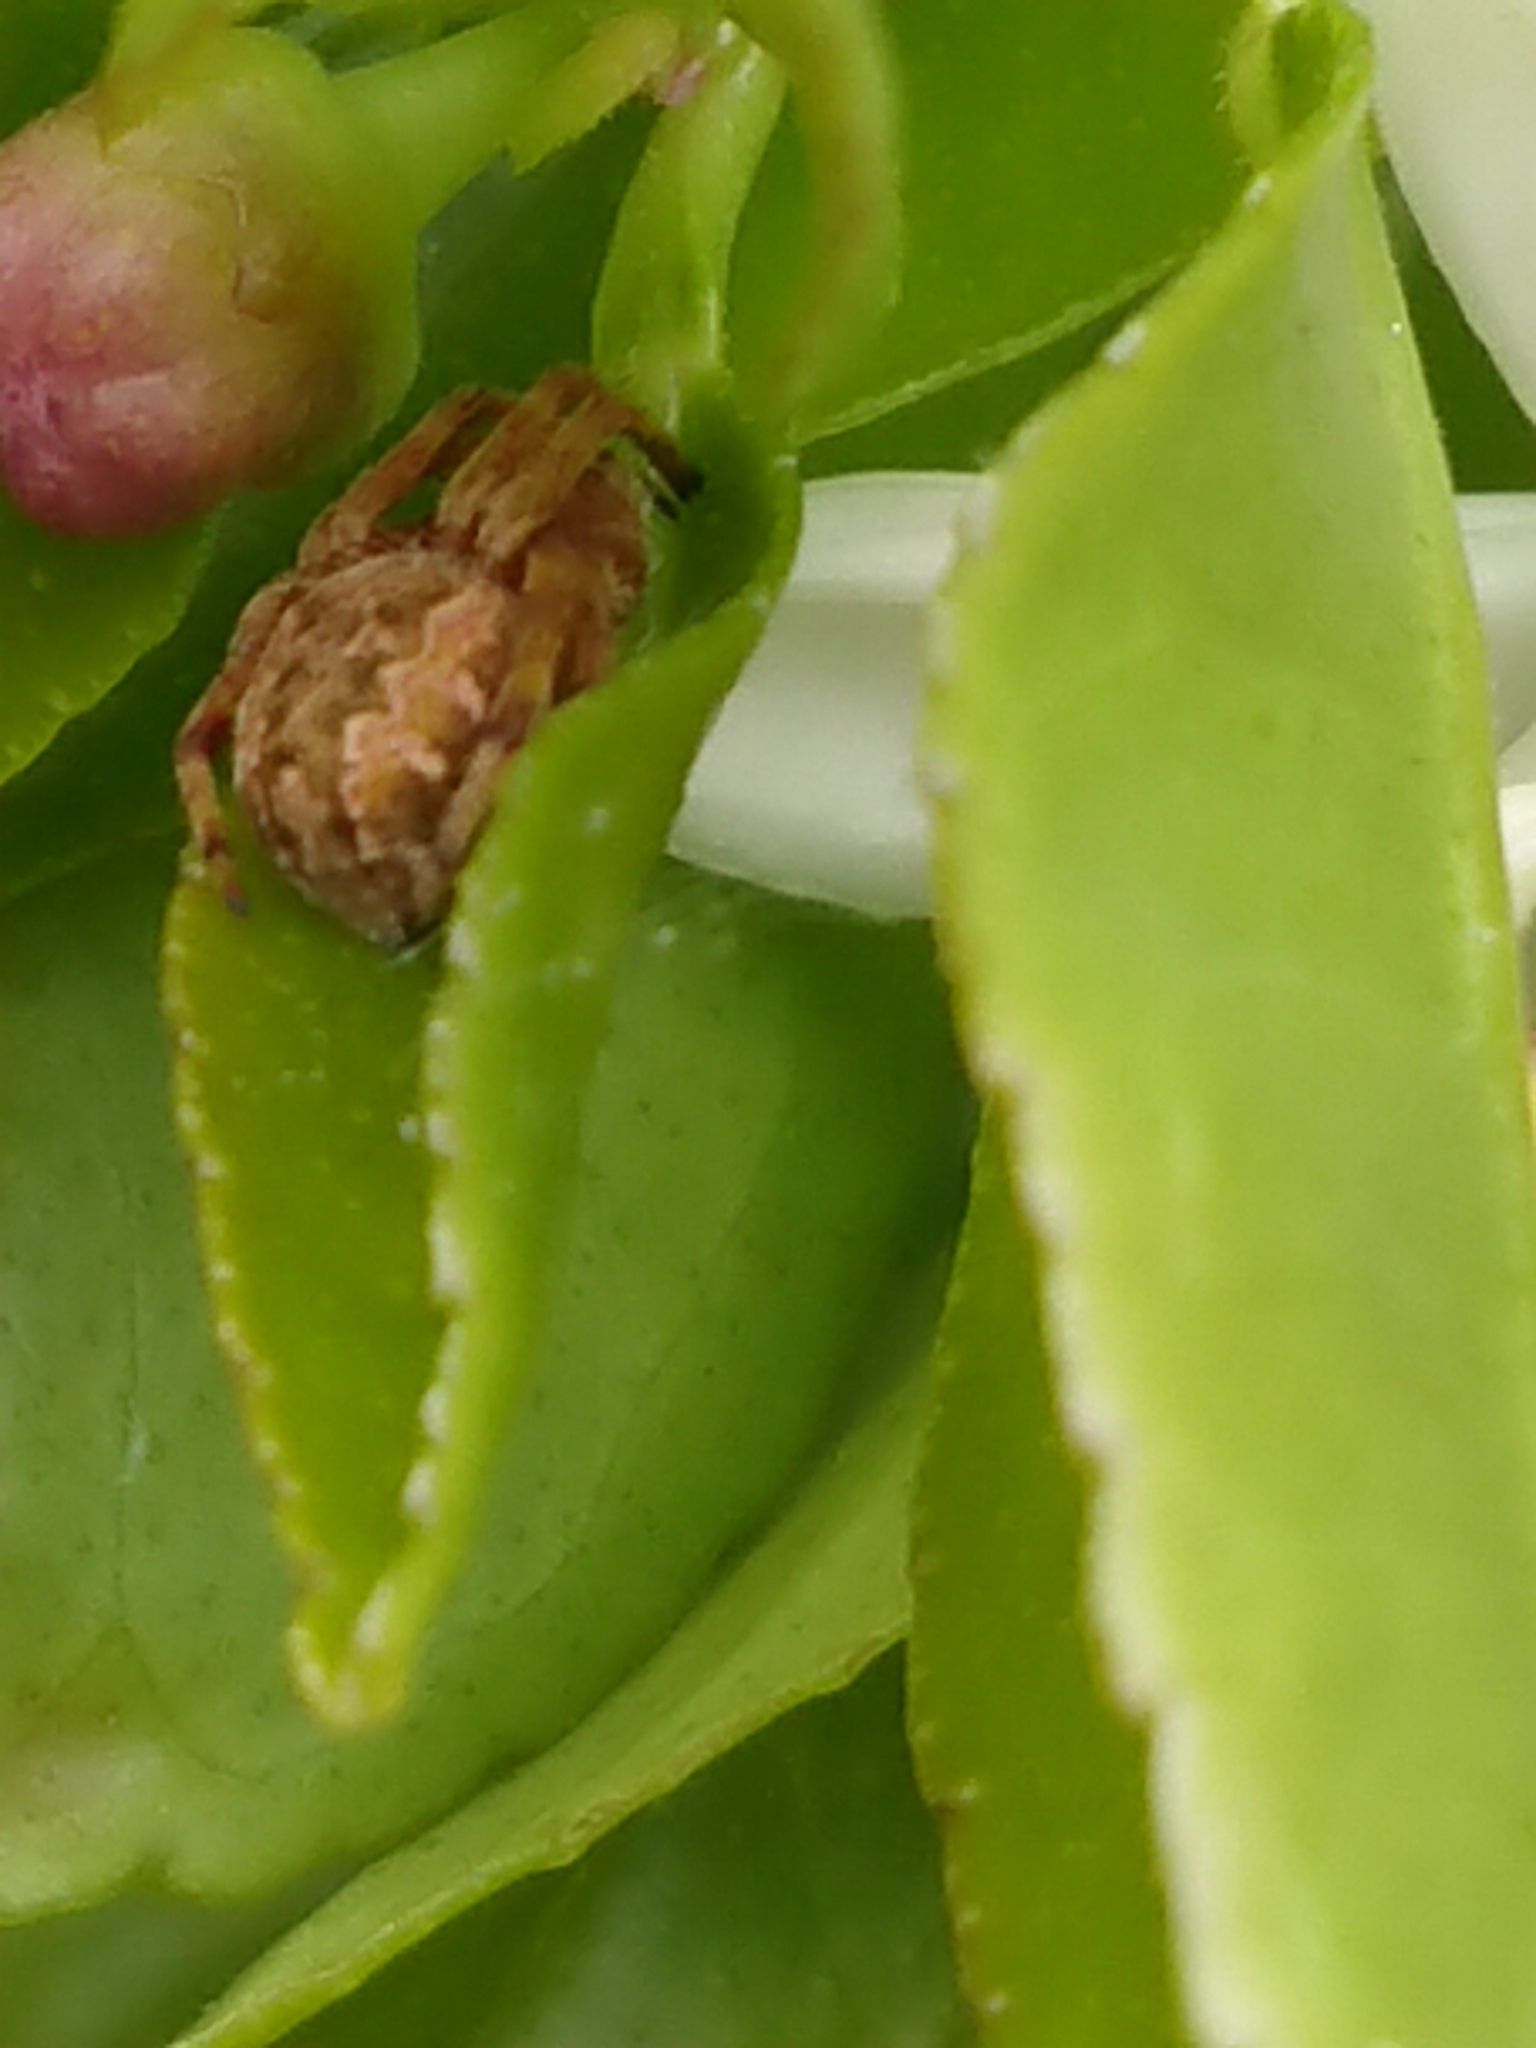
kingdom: Animalia
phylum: Arthropoda
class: Arachnida
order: Araneae
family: Araneidae
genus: Salsa
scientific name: Salsa fuliginata
